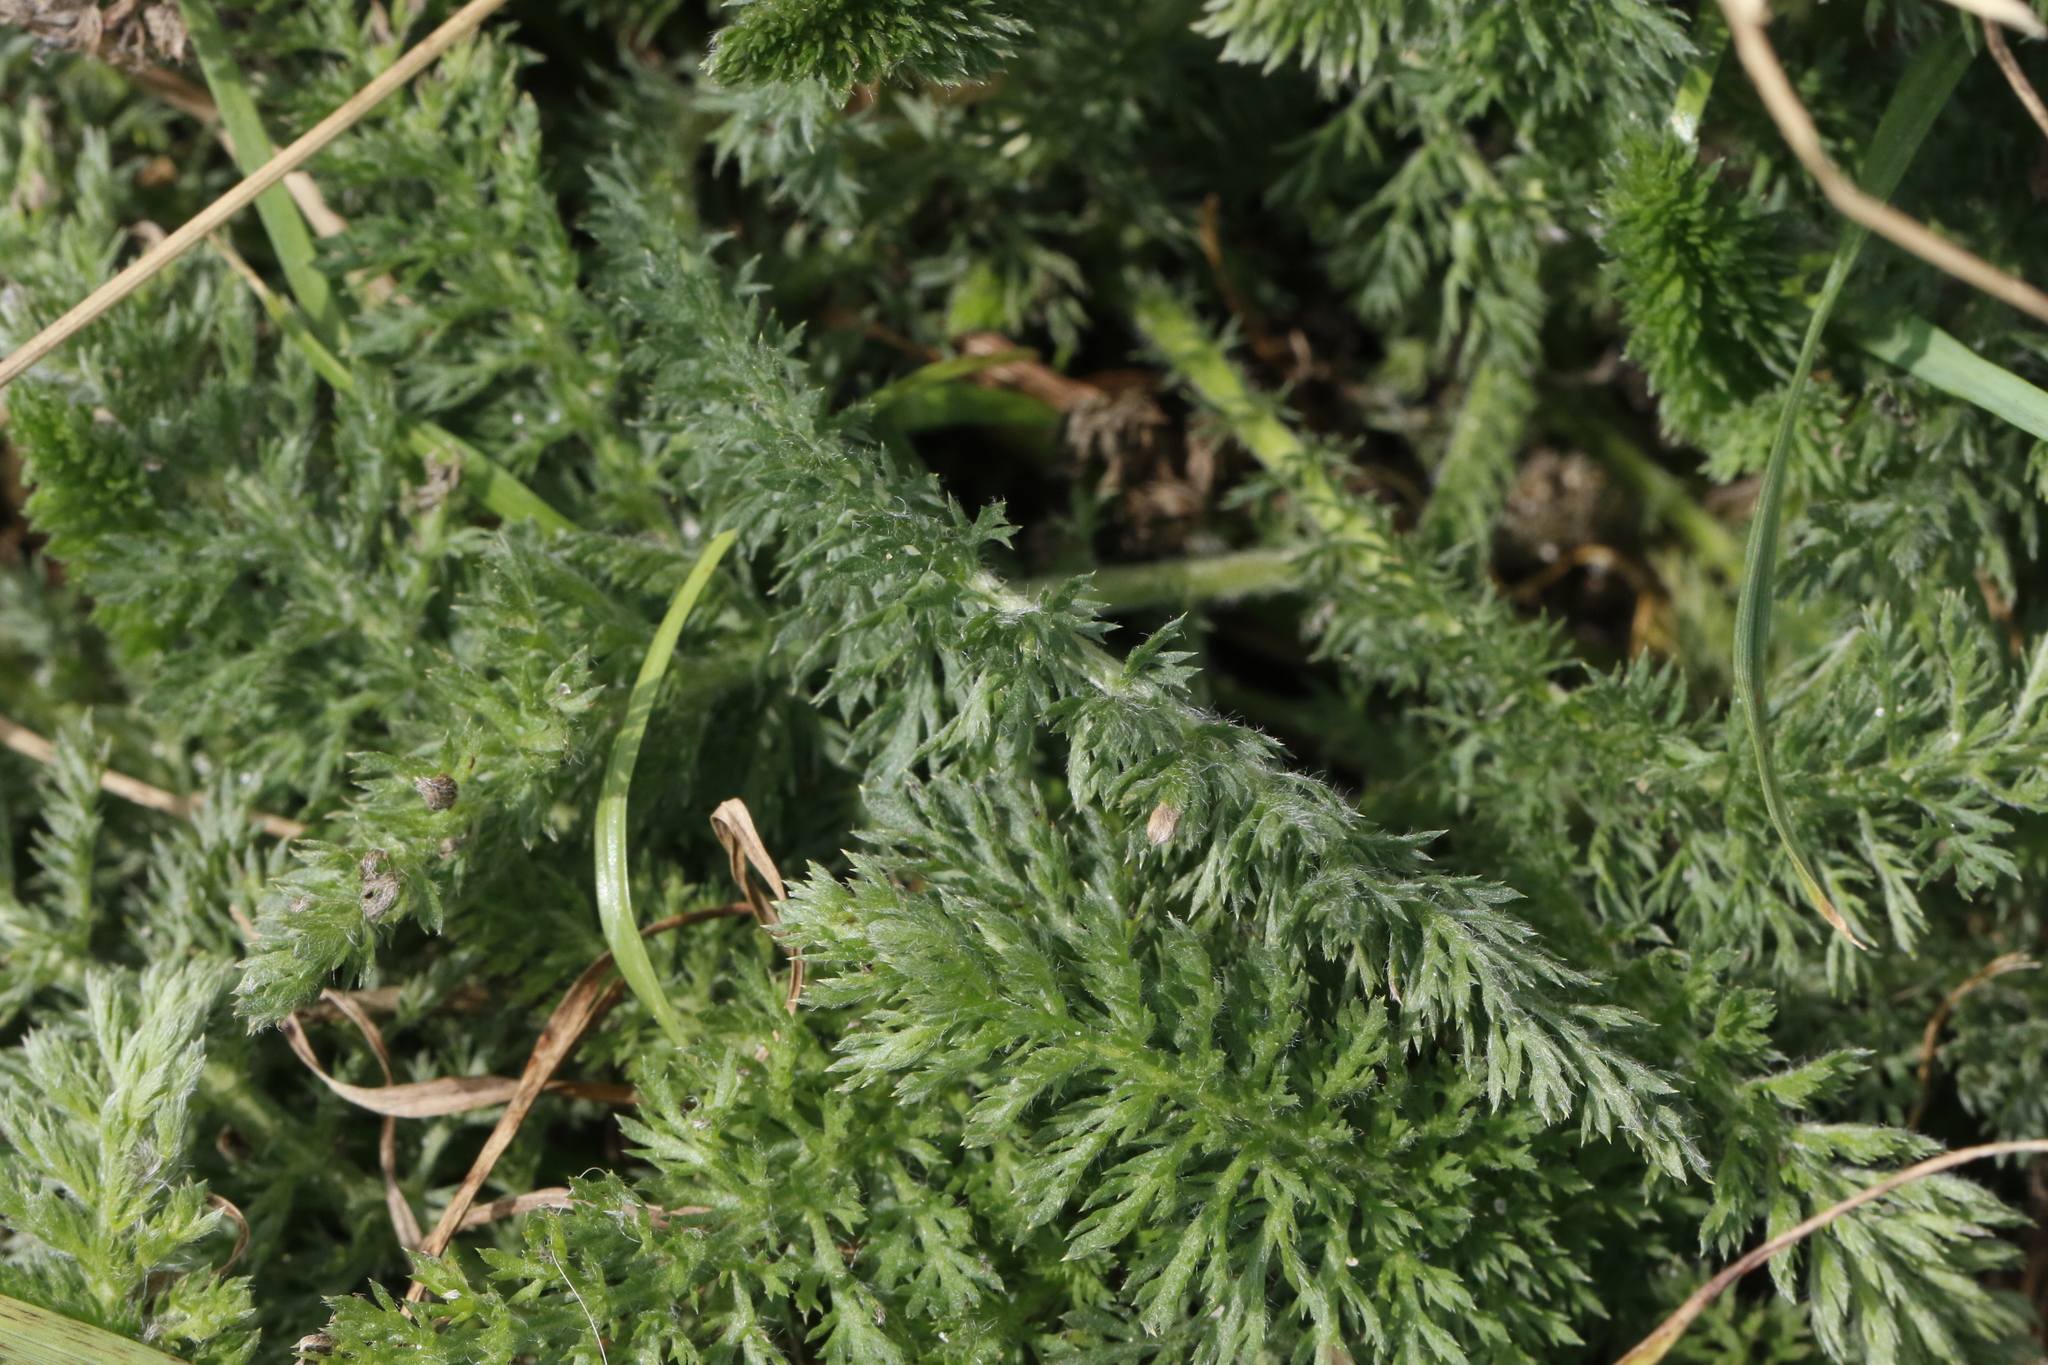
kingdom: Plantae
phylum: Tracheophyta
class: Magnoliopsida
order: Asterales
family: Asteraceae
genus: Achillea
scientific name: Achillea millefolium
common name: Yarrow
